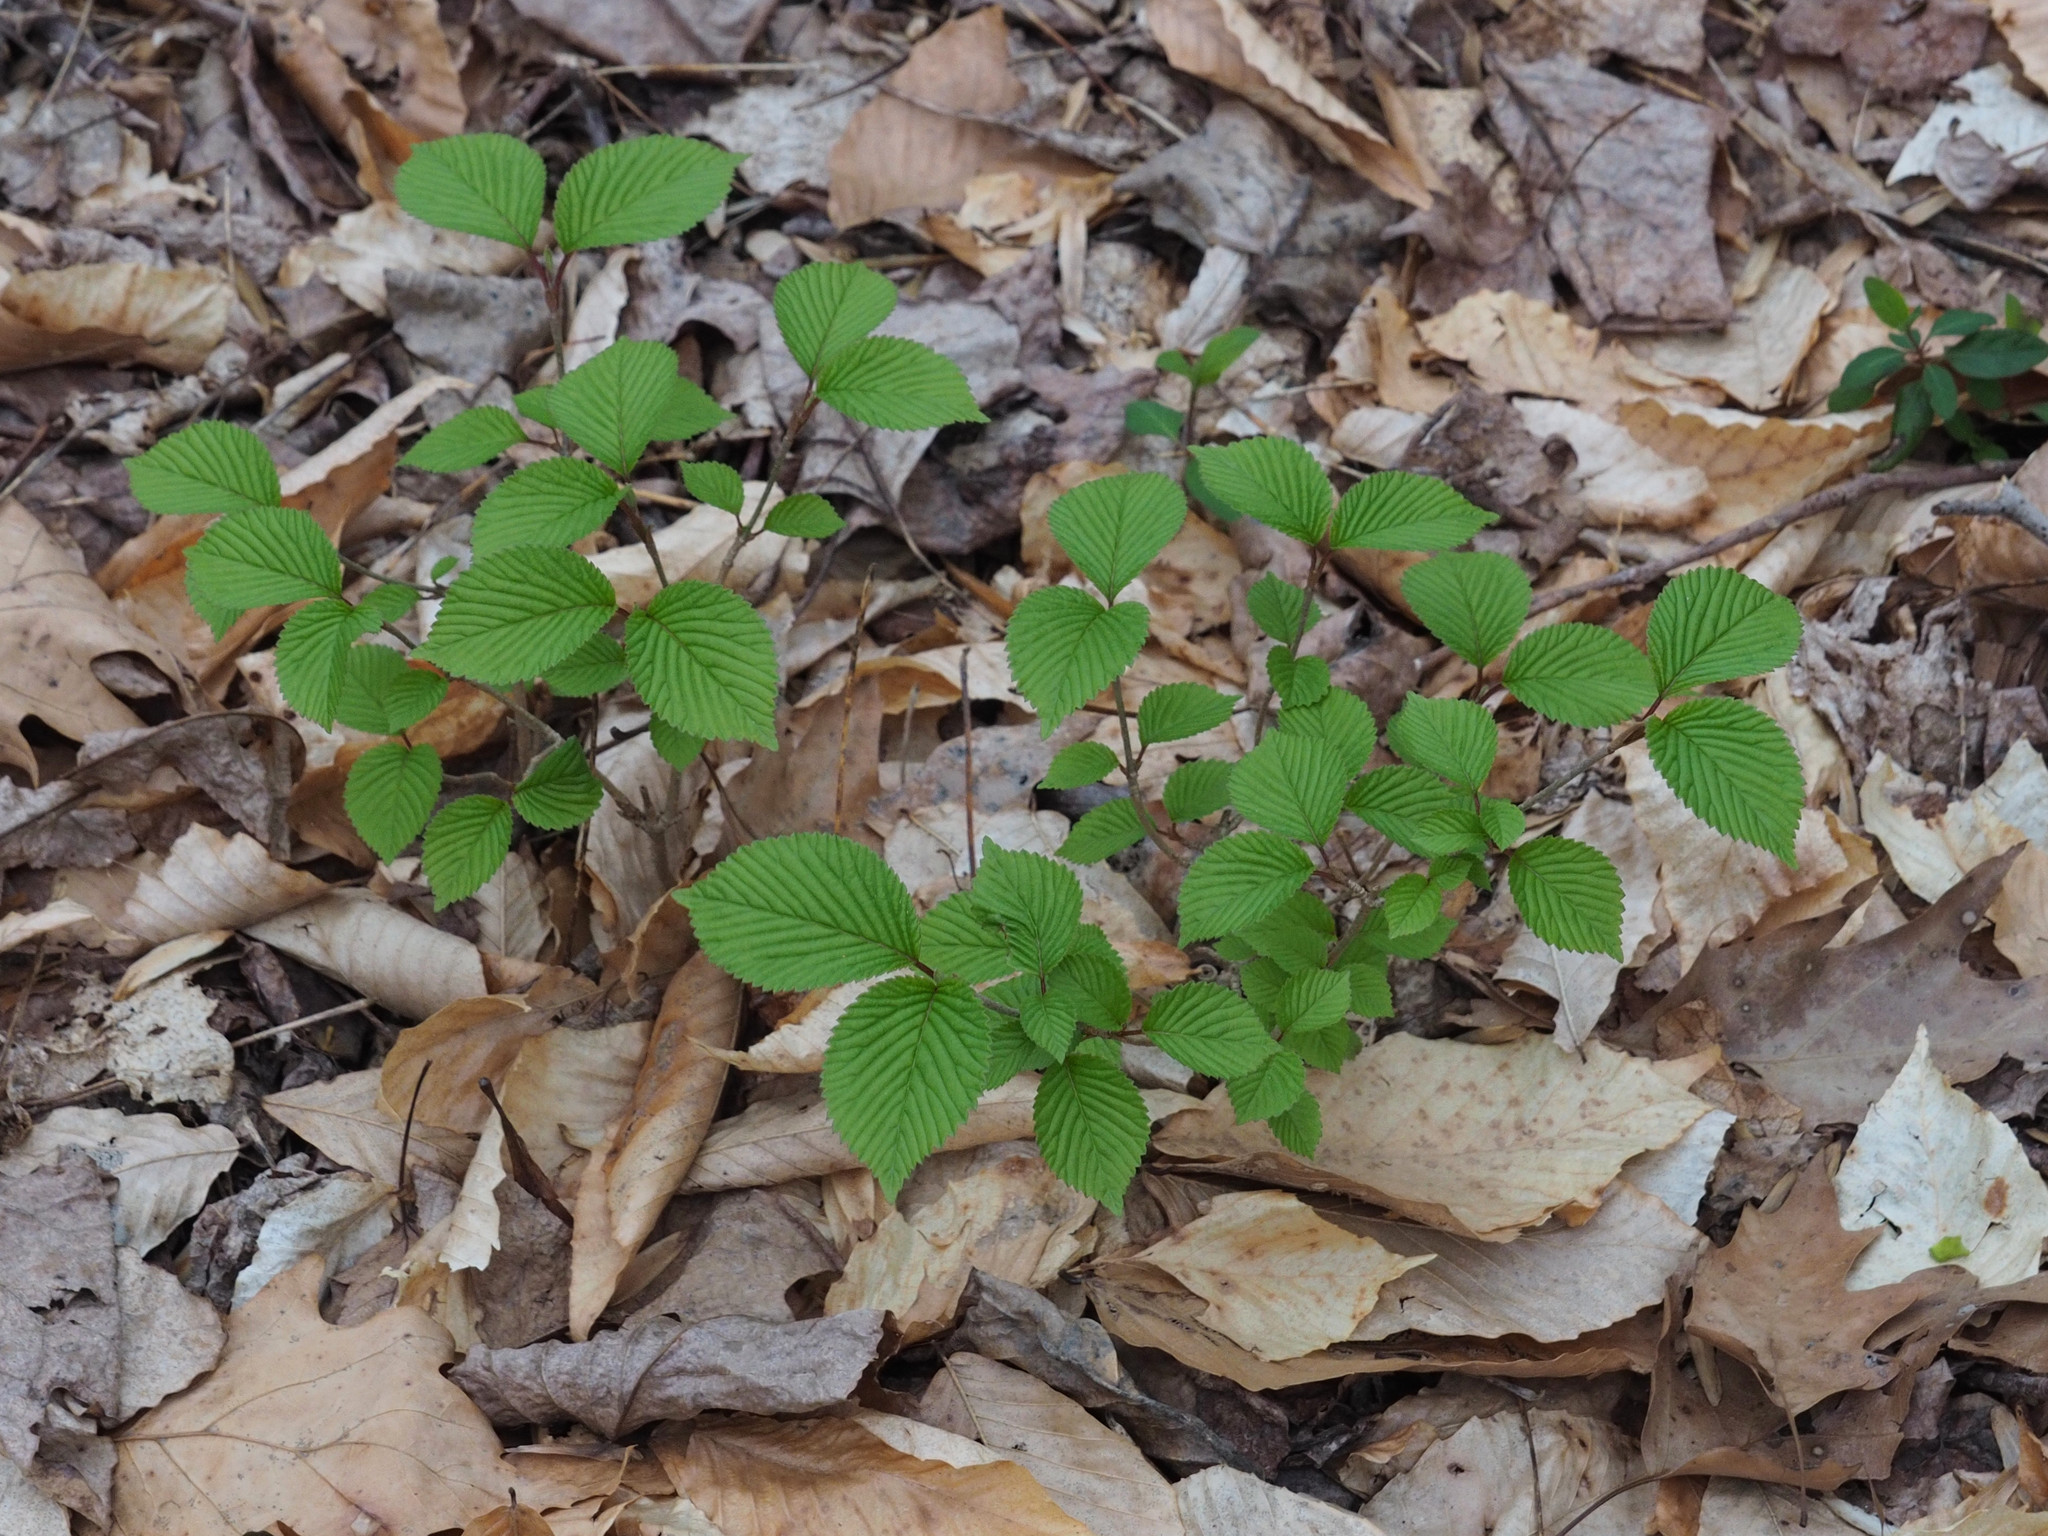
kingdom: Plantae
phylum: Tracheophyta
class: Magnoliopsida
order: Dipsacales
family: Viburnaceae
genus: Viburnum
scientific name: Viburnum plicatum
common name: Japanese snowball
